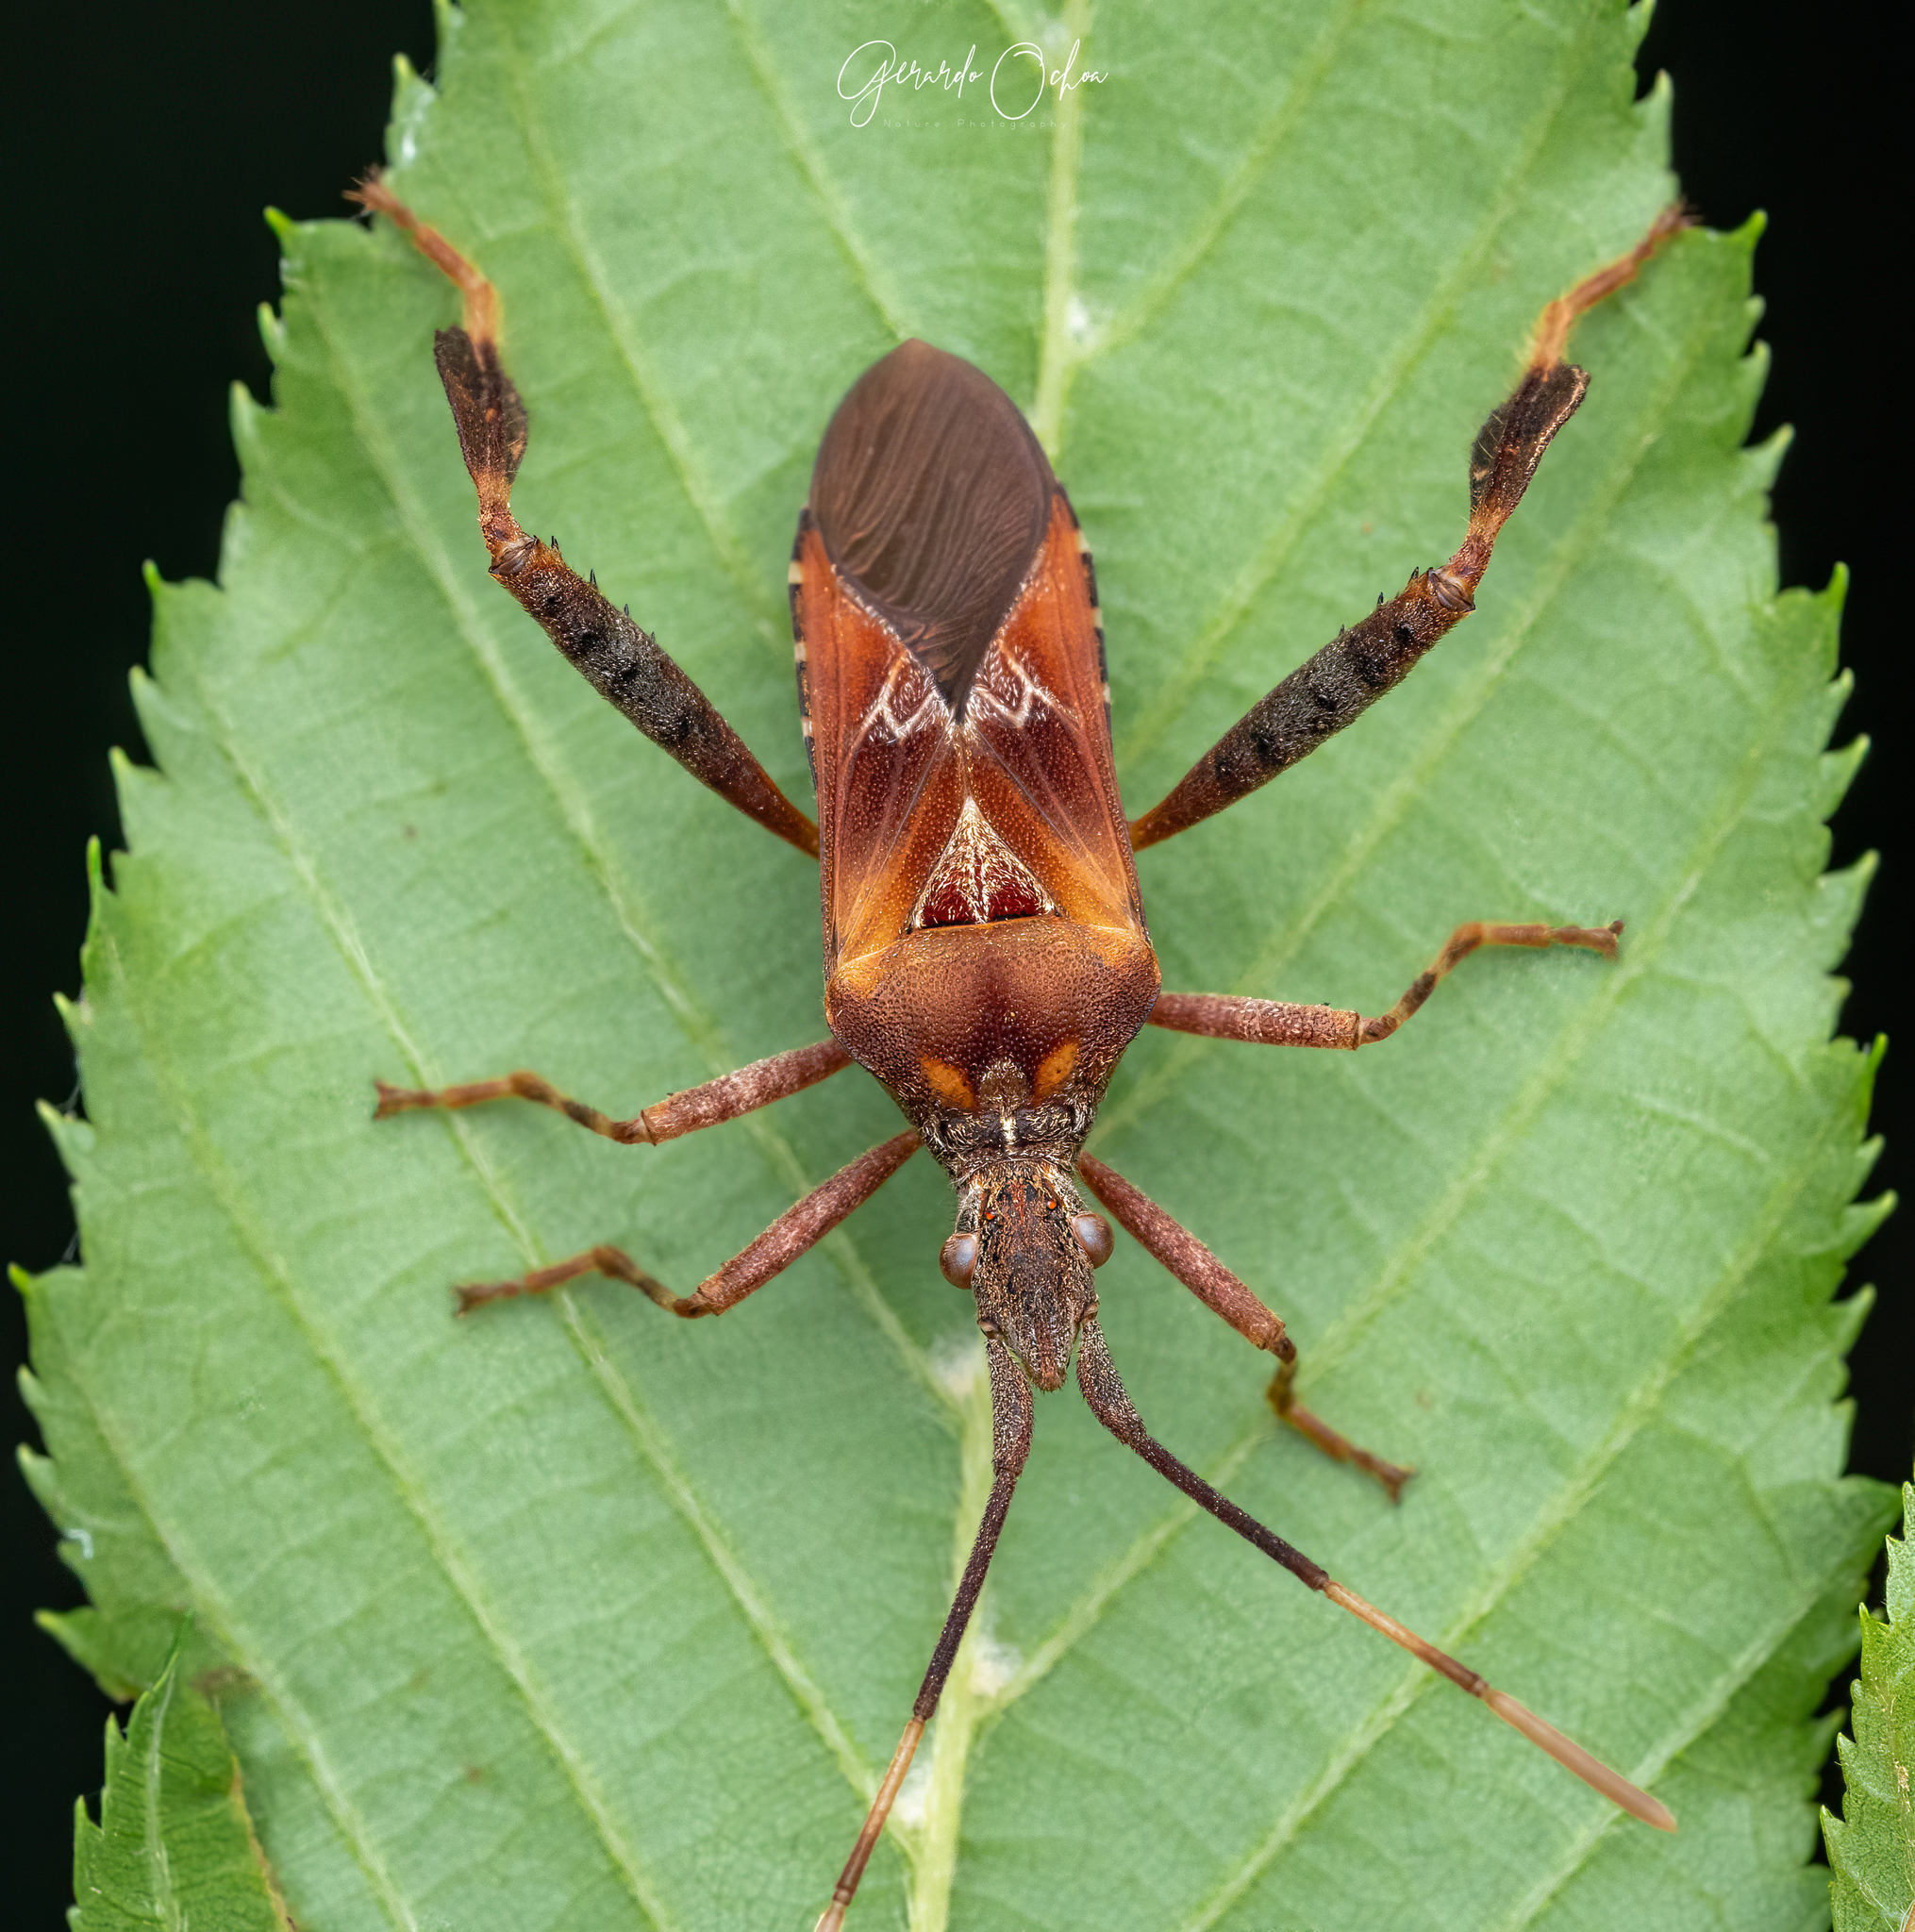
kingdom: Animalia
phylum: Arthropoda
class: Insecta
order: Hemiptera
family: Coreidae
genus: Leptoglossus
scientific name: Leptoglossus occidentalis
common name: Western conifer-seed bug
